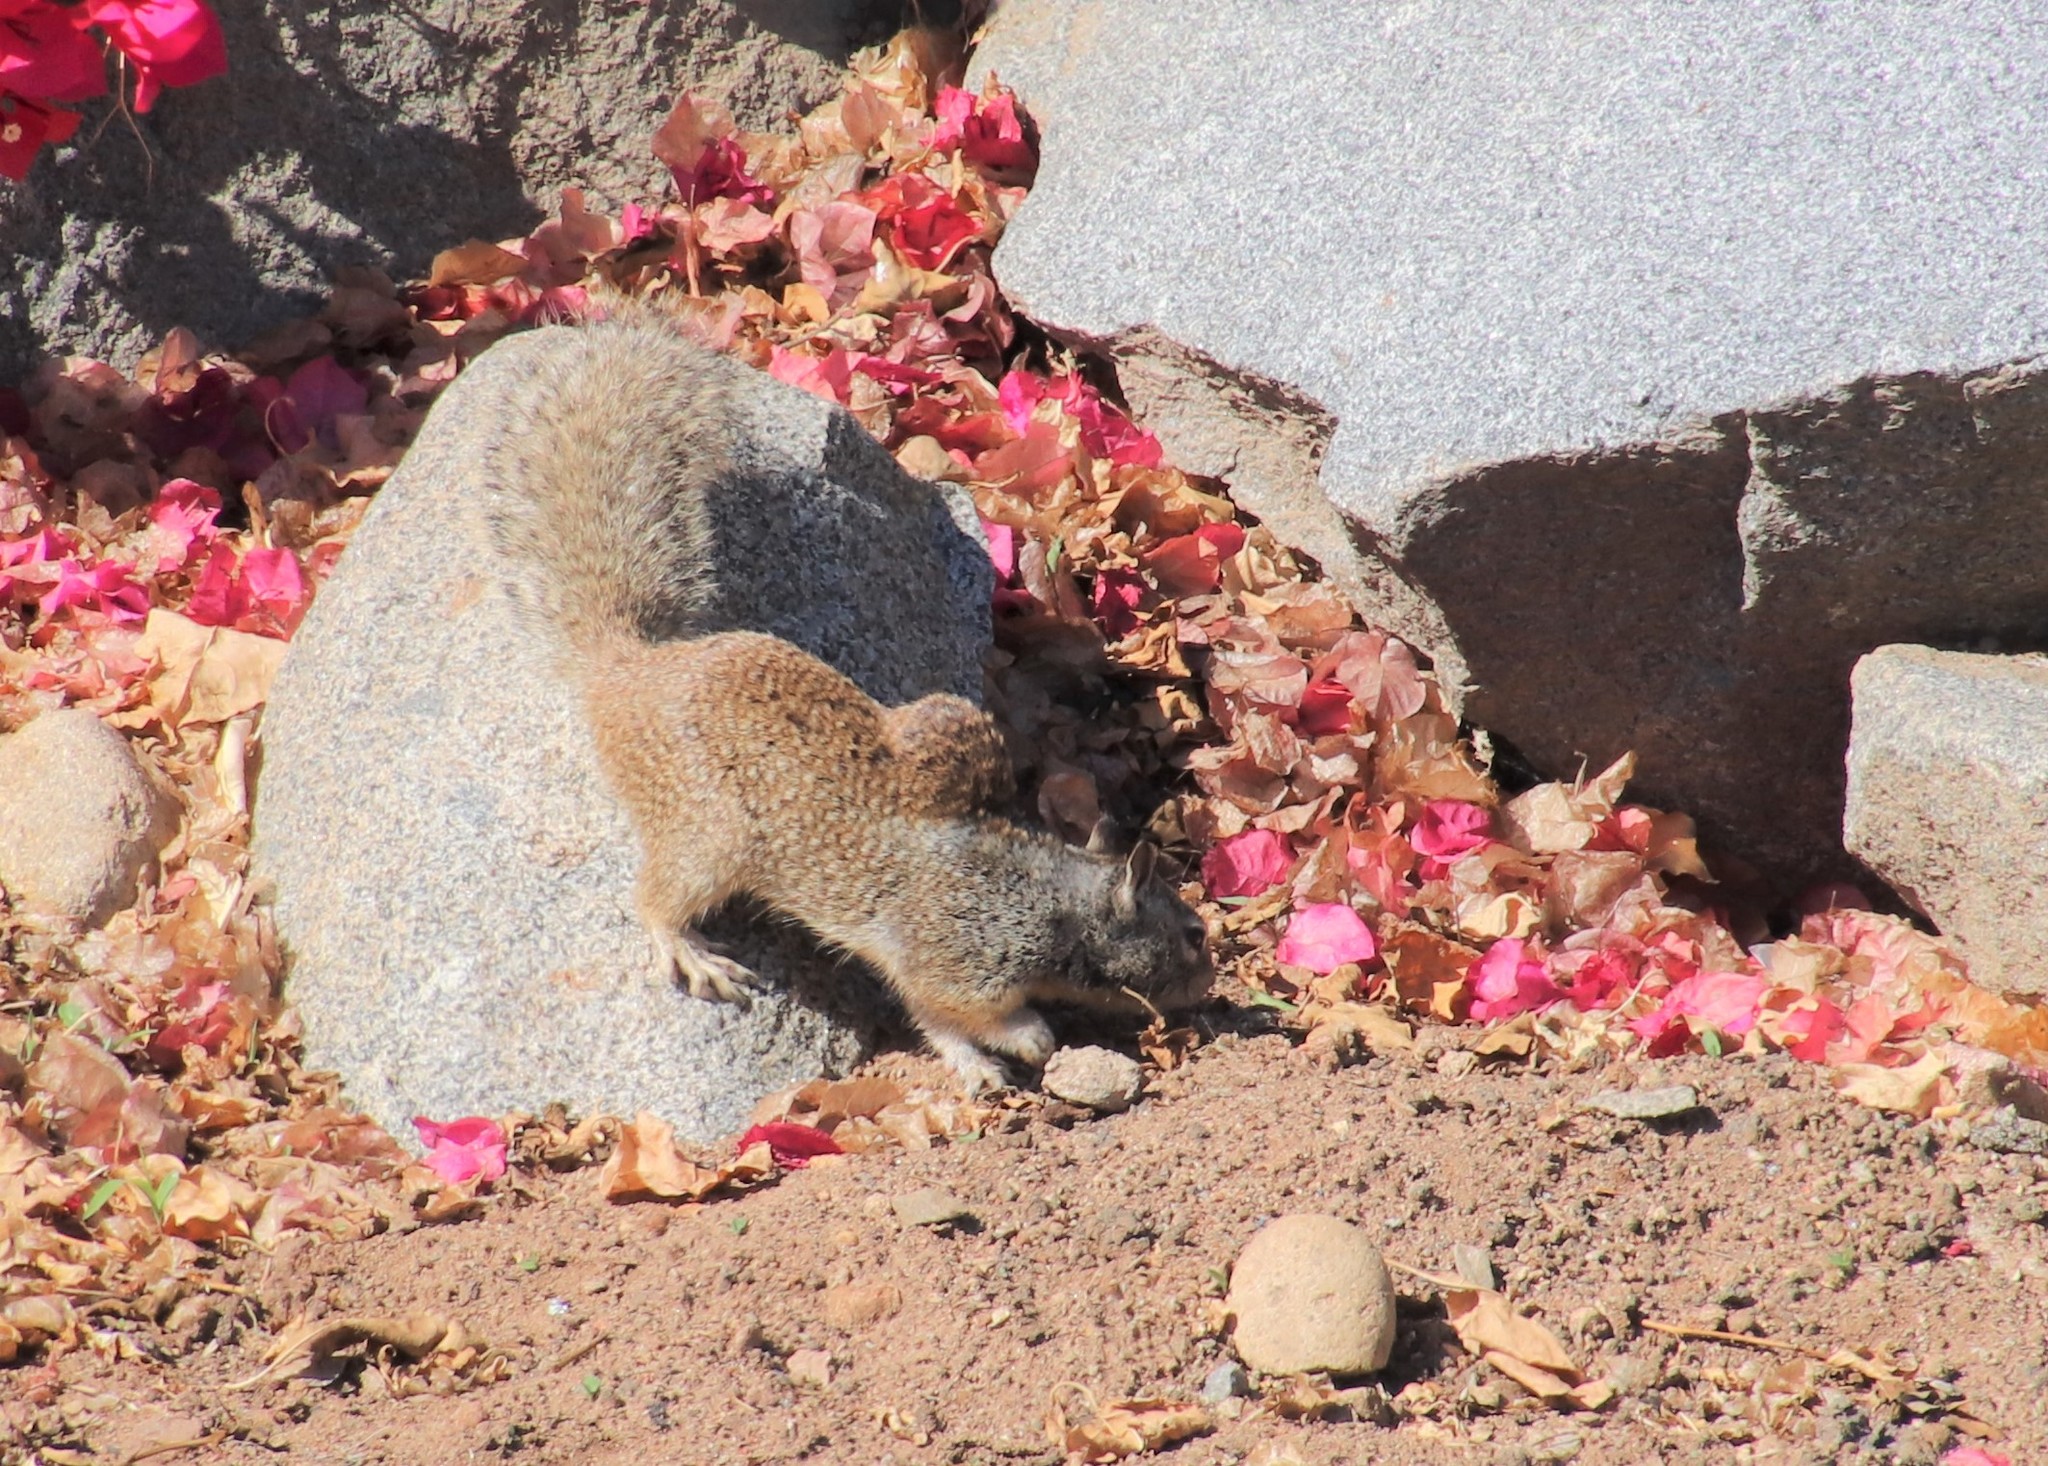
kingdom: Animalia
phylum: Chordata
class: Mammalia
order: Rodentia
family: Sciuridae
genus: Otospermophilus
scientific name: Otospermophilus beecheyi
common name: California ground squirrel
